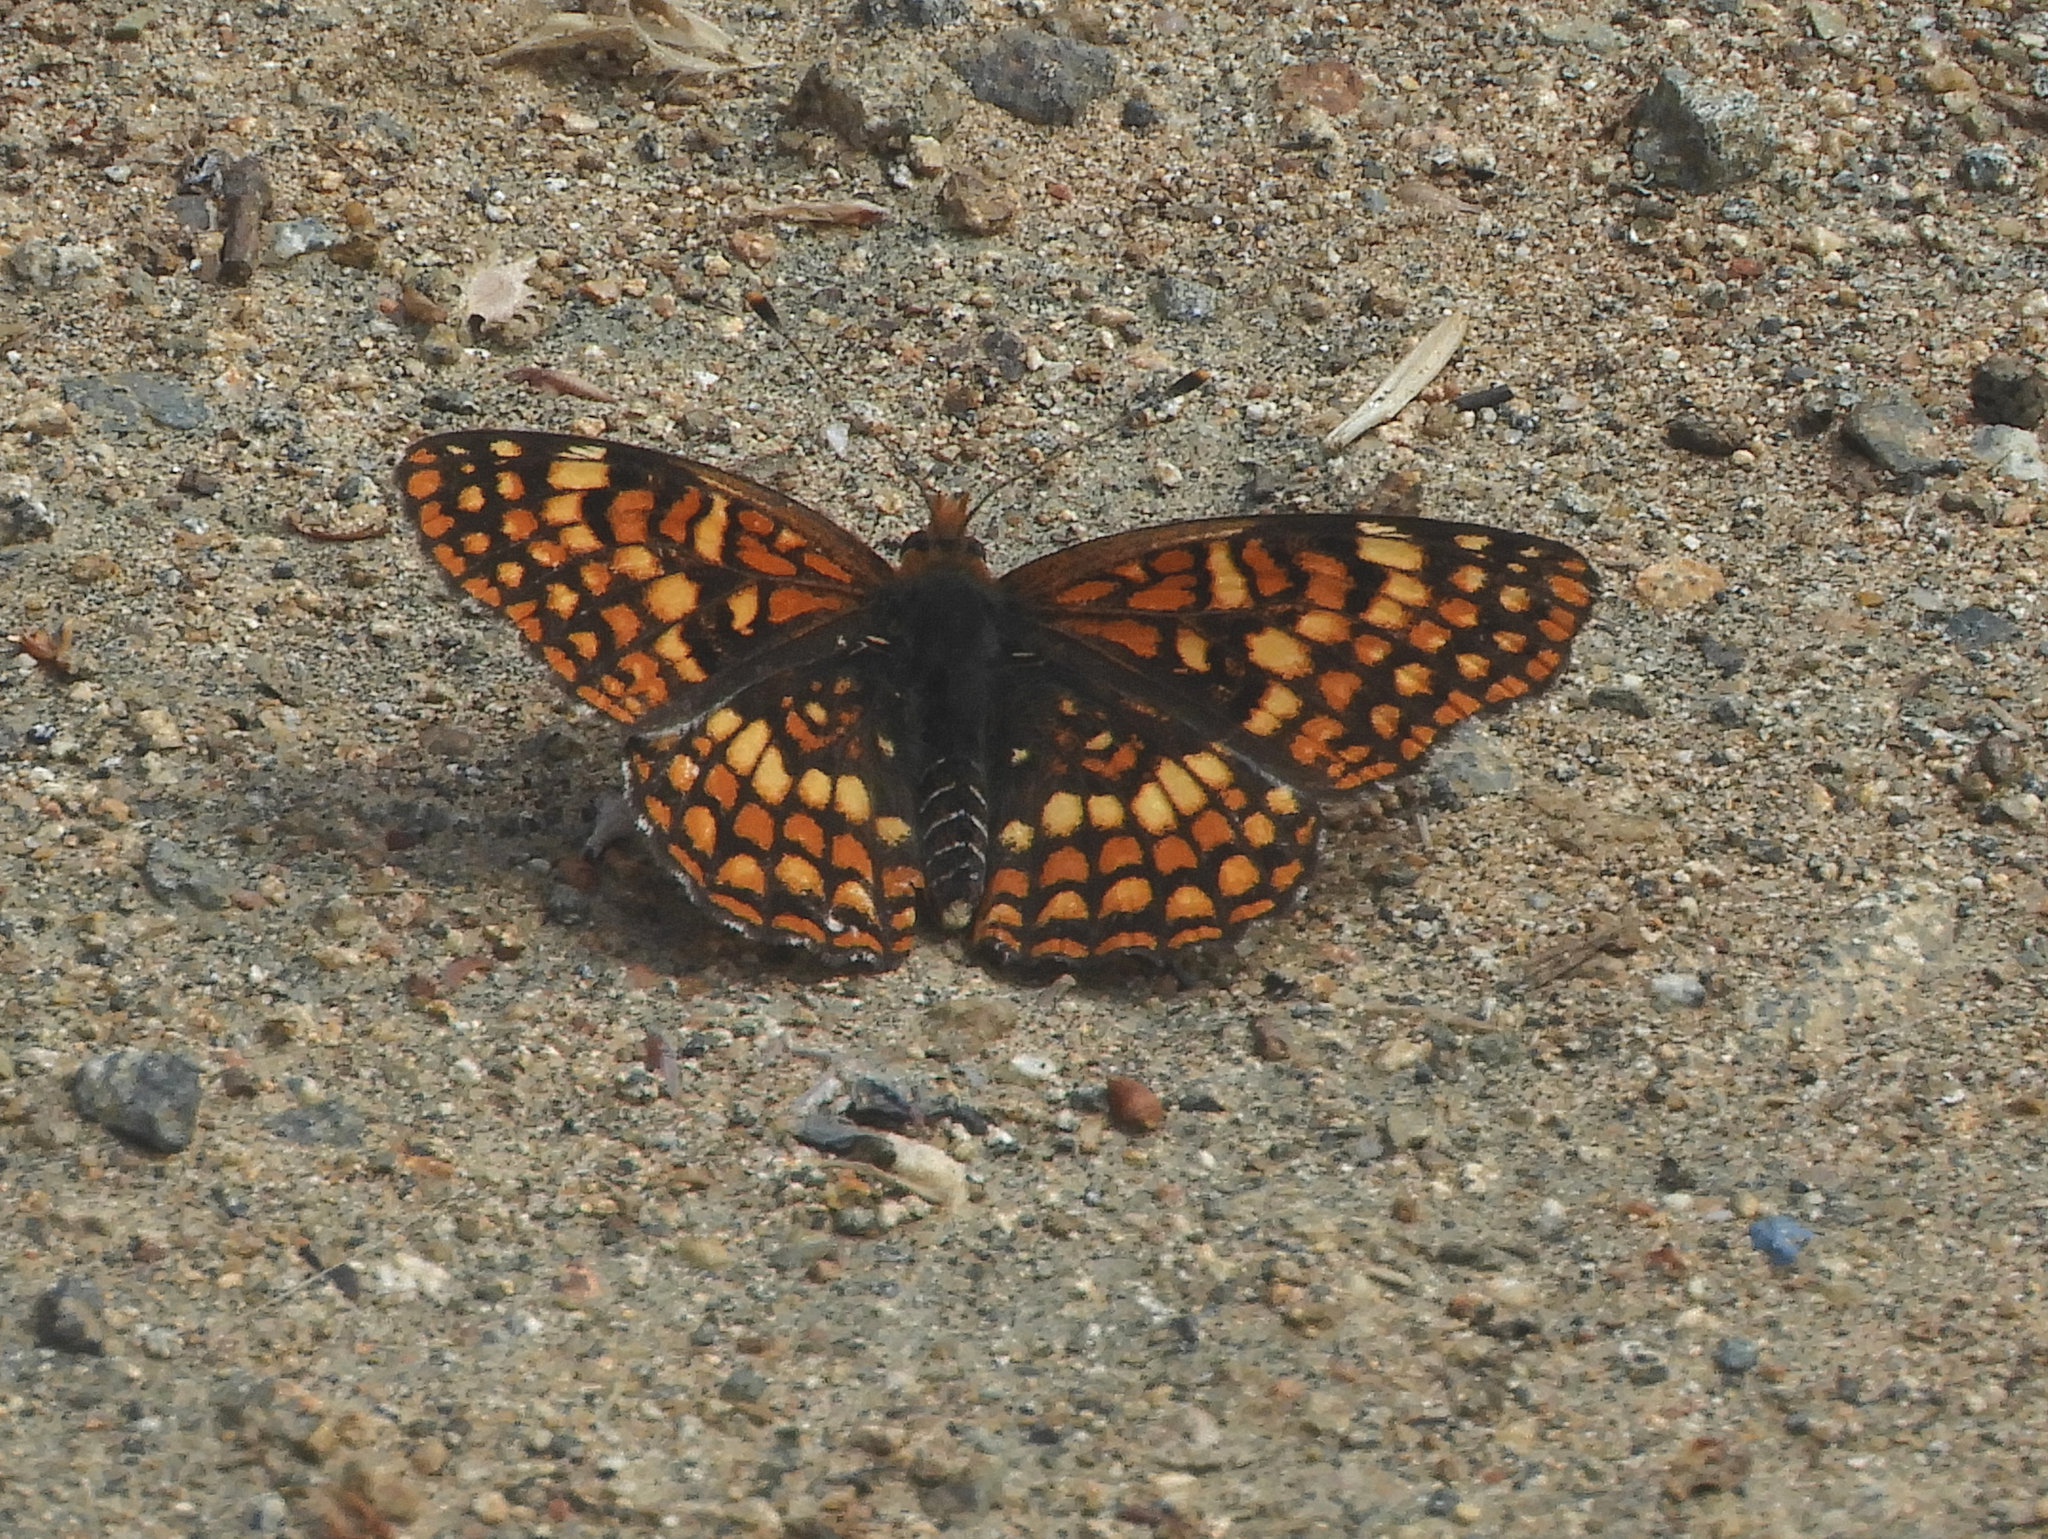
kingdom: Animalia
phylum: Arthropoda
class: Insecta
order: Lepidoptera
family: Nymphalidae
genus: Chlosyne
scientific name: Chlosyne palla
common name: Northern checkerspot
